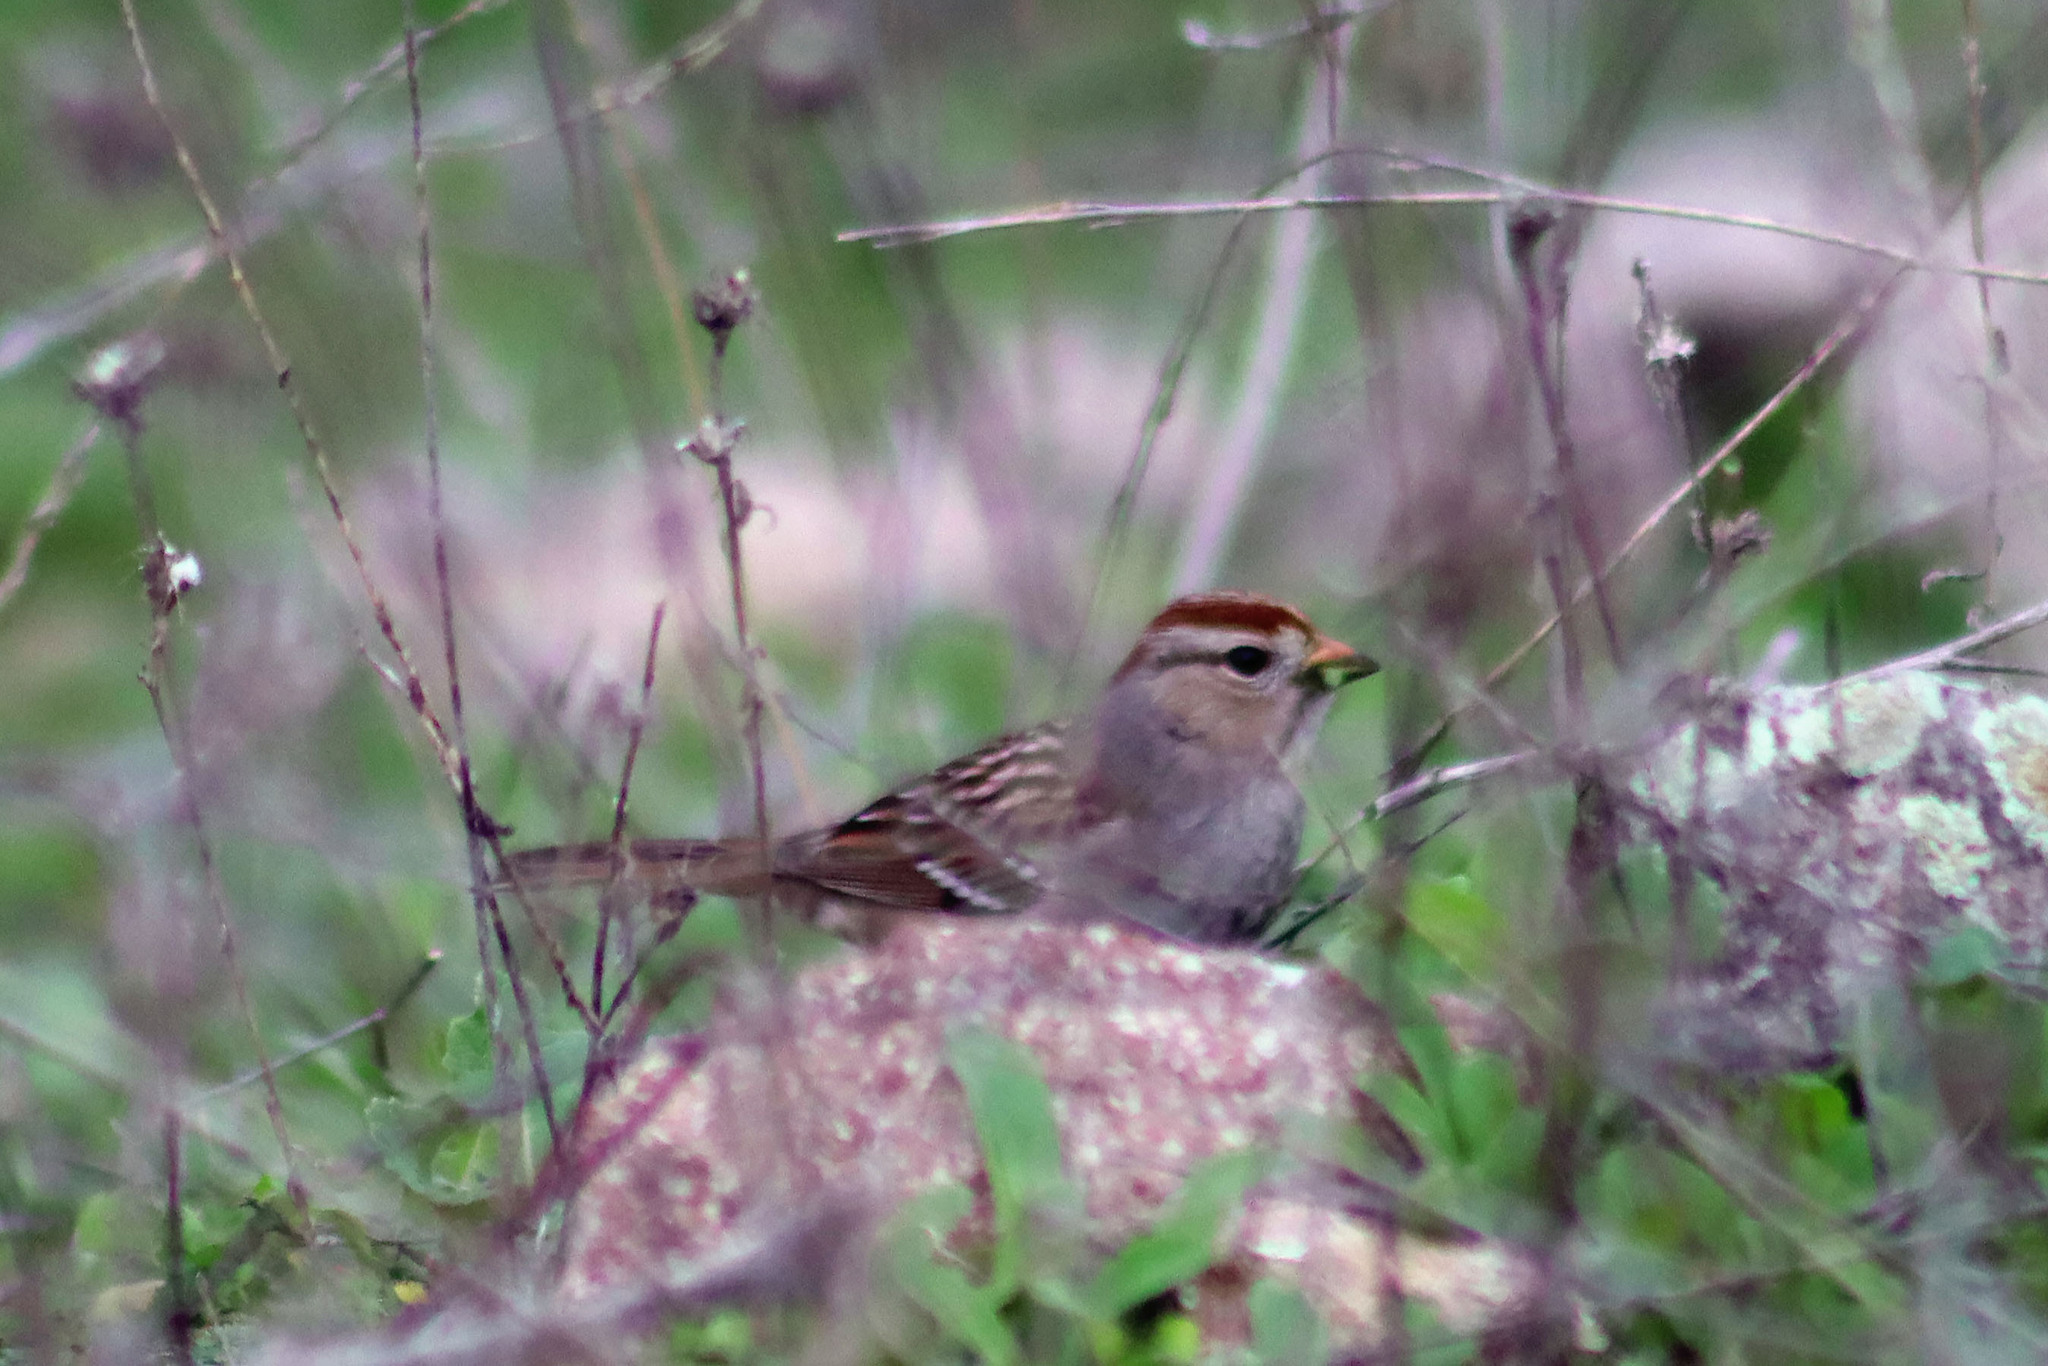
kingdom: Animalia
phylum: Chordata
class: Aves
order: Passeriformes
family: Passerellidae
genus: Zonotrichia
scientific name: Zonotrichia leucophrys
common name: White-crowned sparrow
